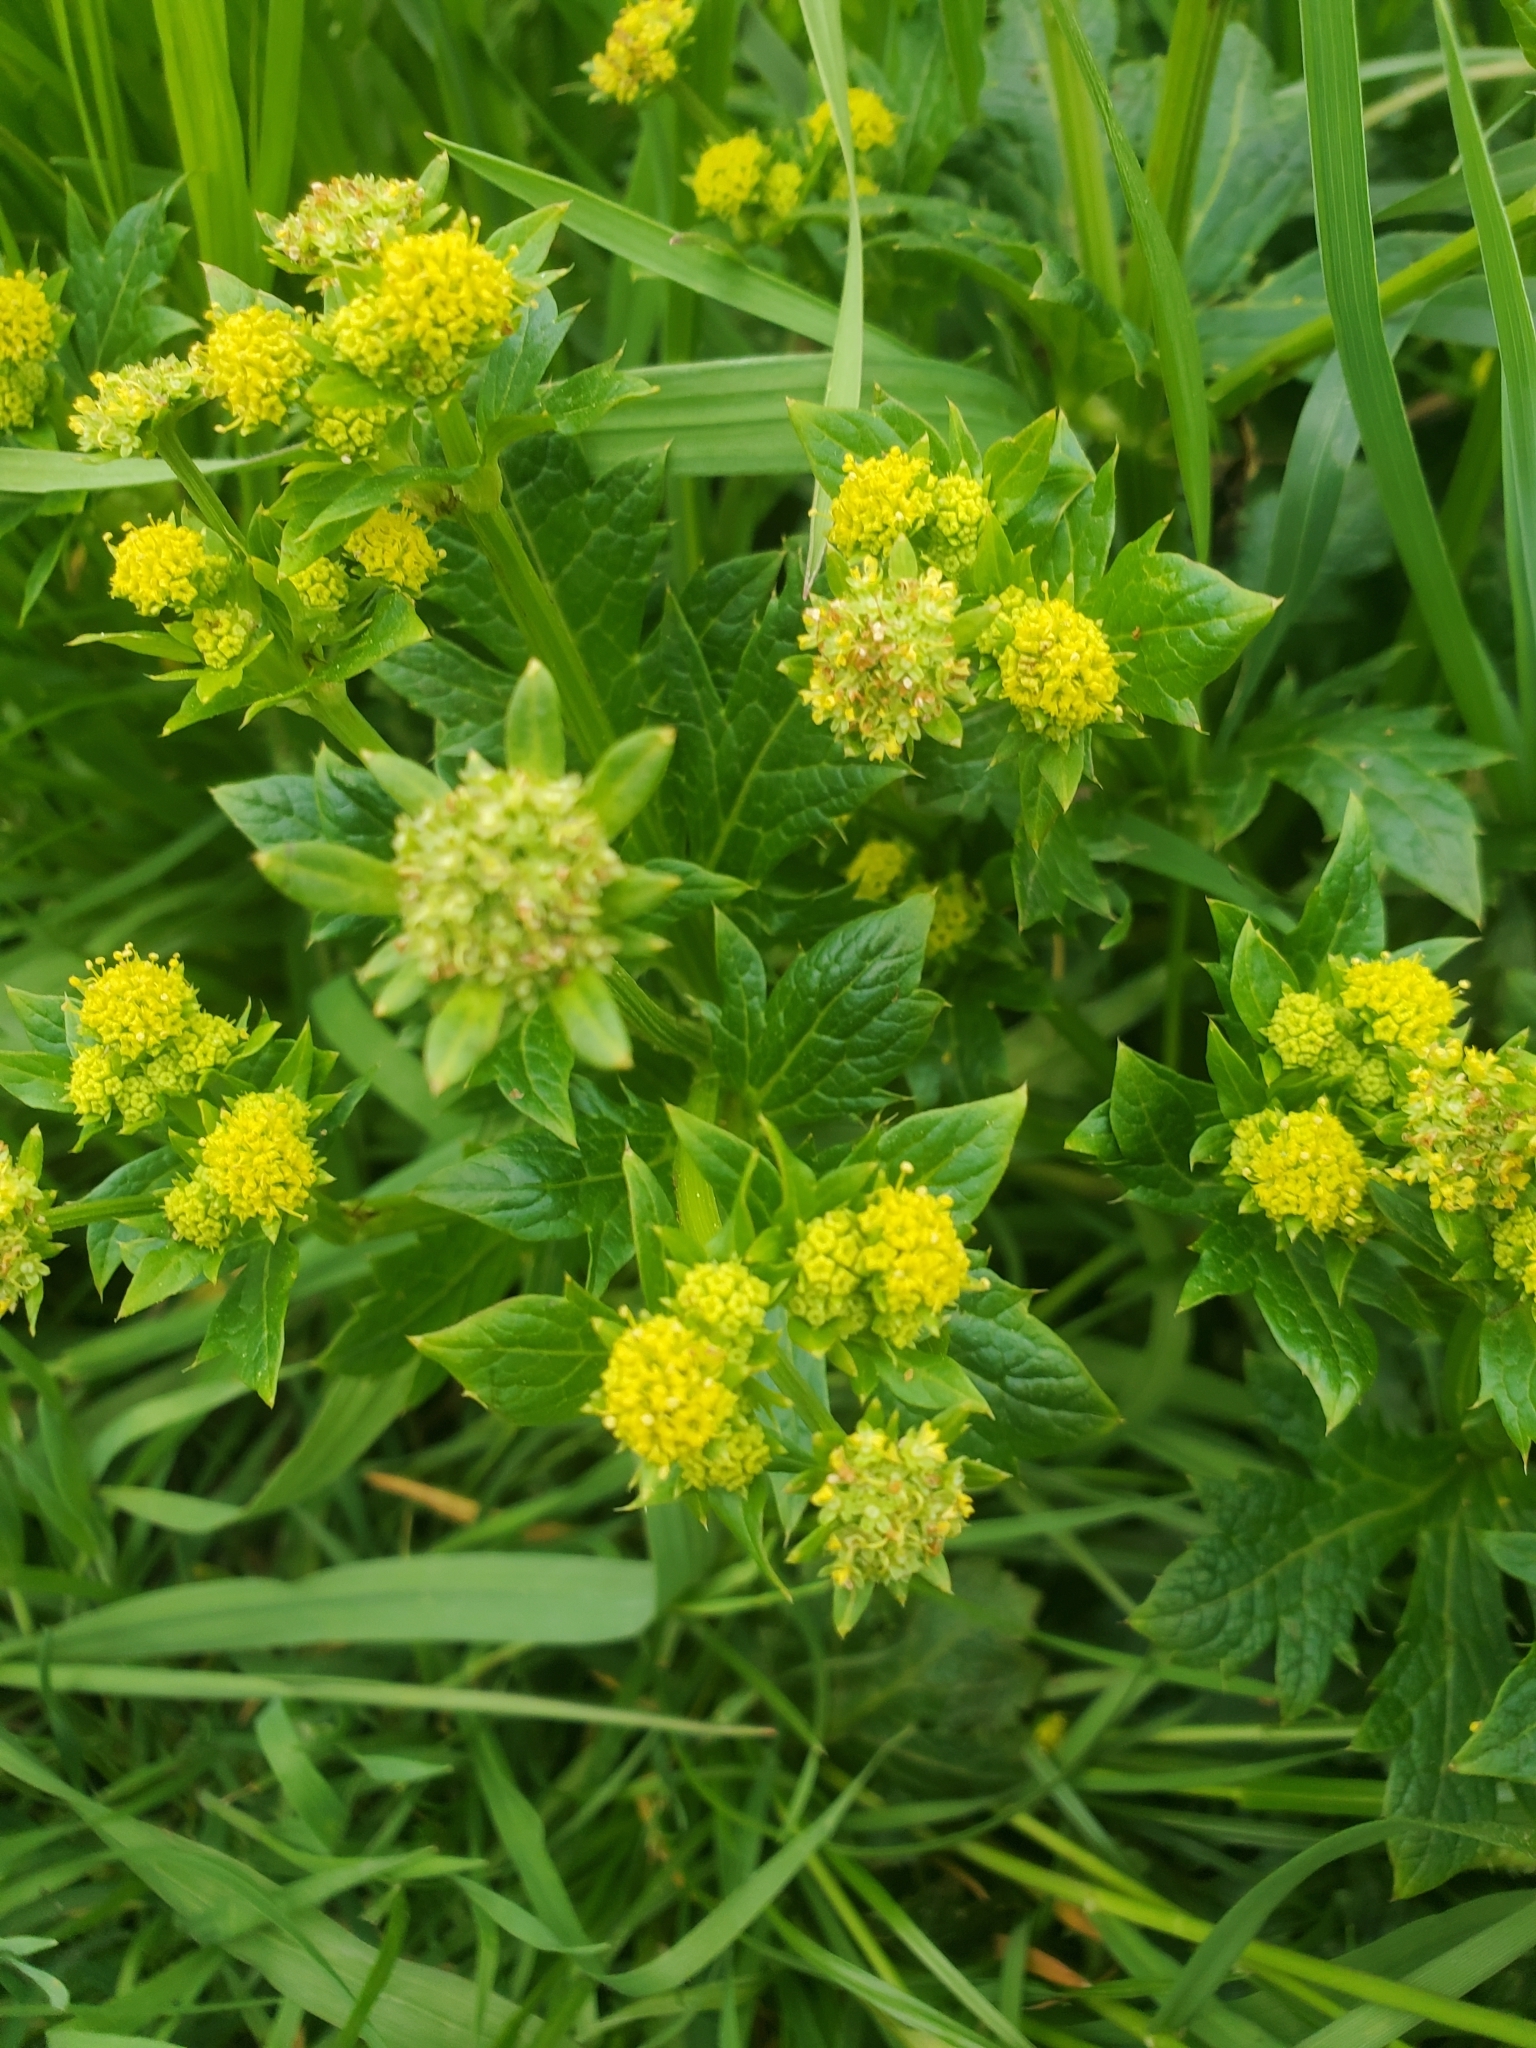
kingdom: Plantae
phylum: Tracheophyta
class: Magnoliopsida
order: Apiales
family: Apiaceae
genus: Sanicula
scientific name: Sanicula crassicaulis
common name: Western snakeroot
